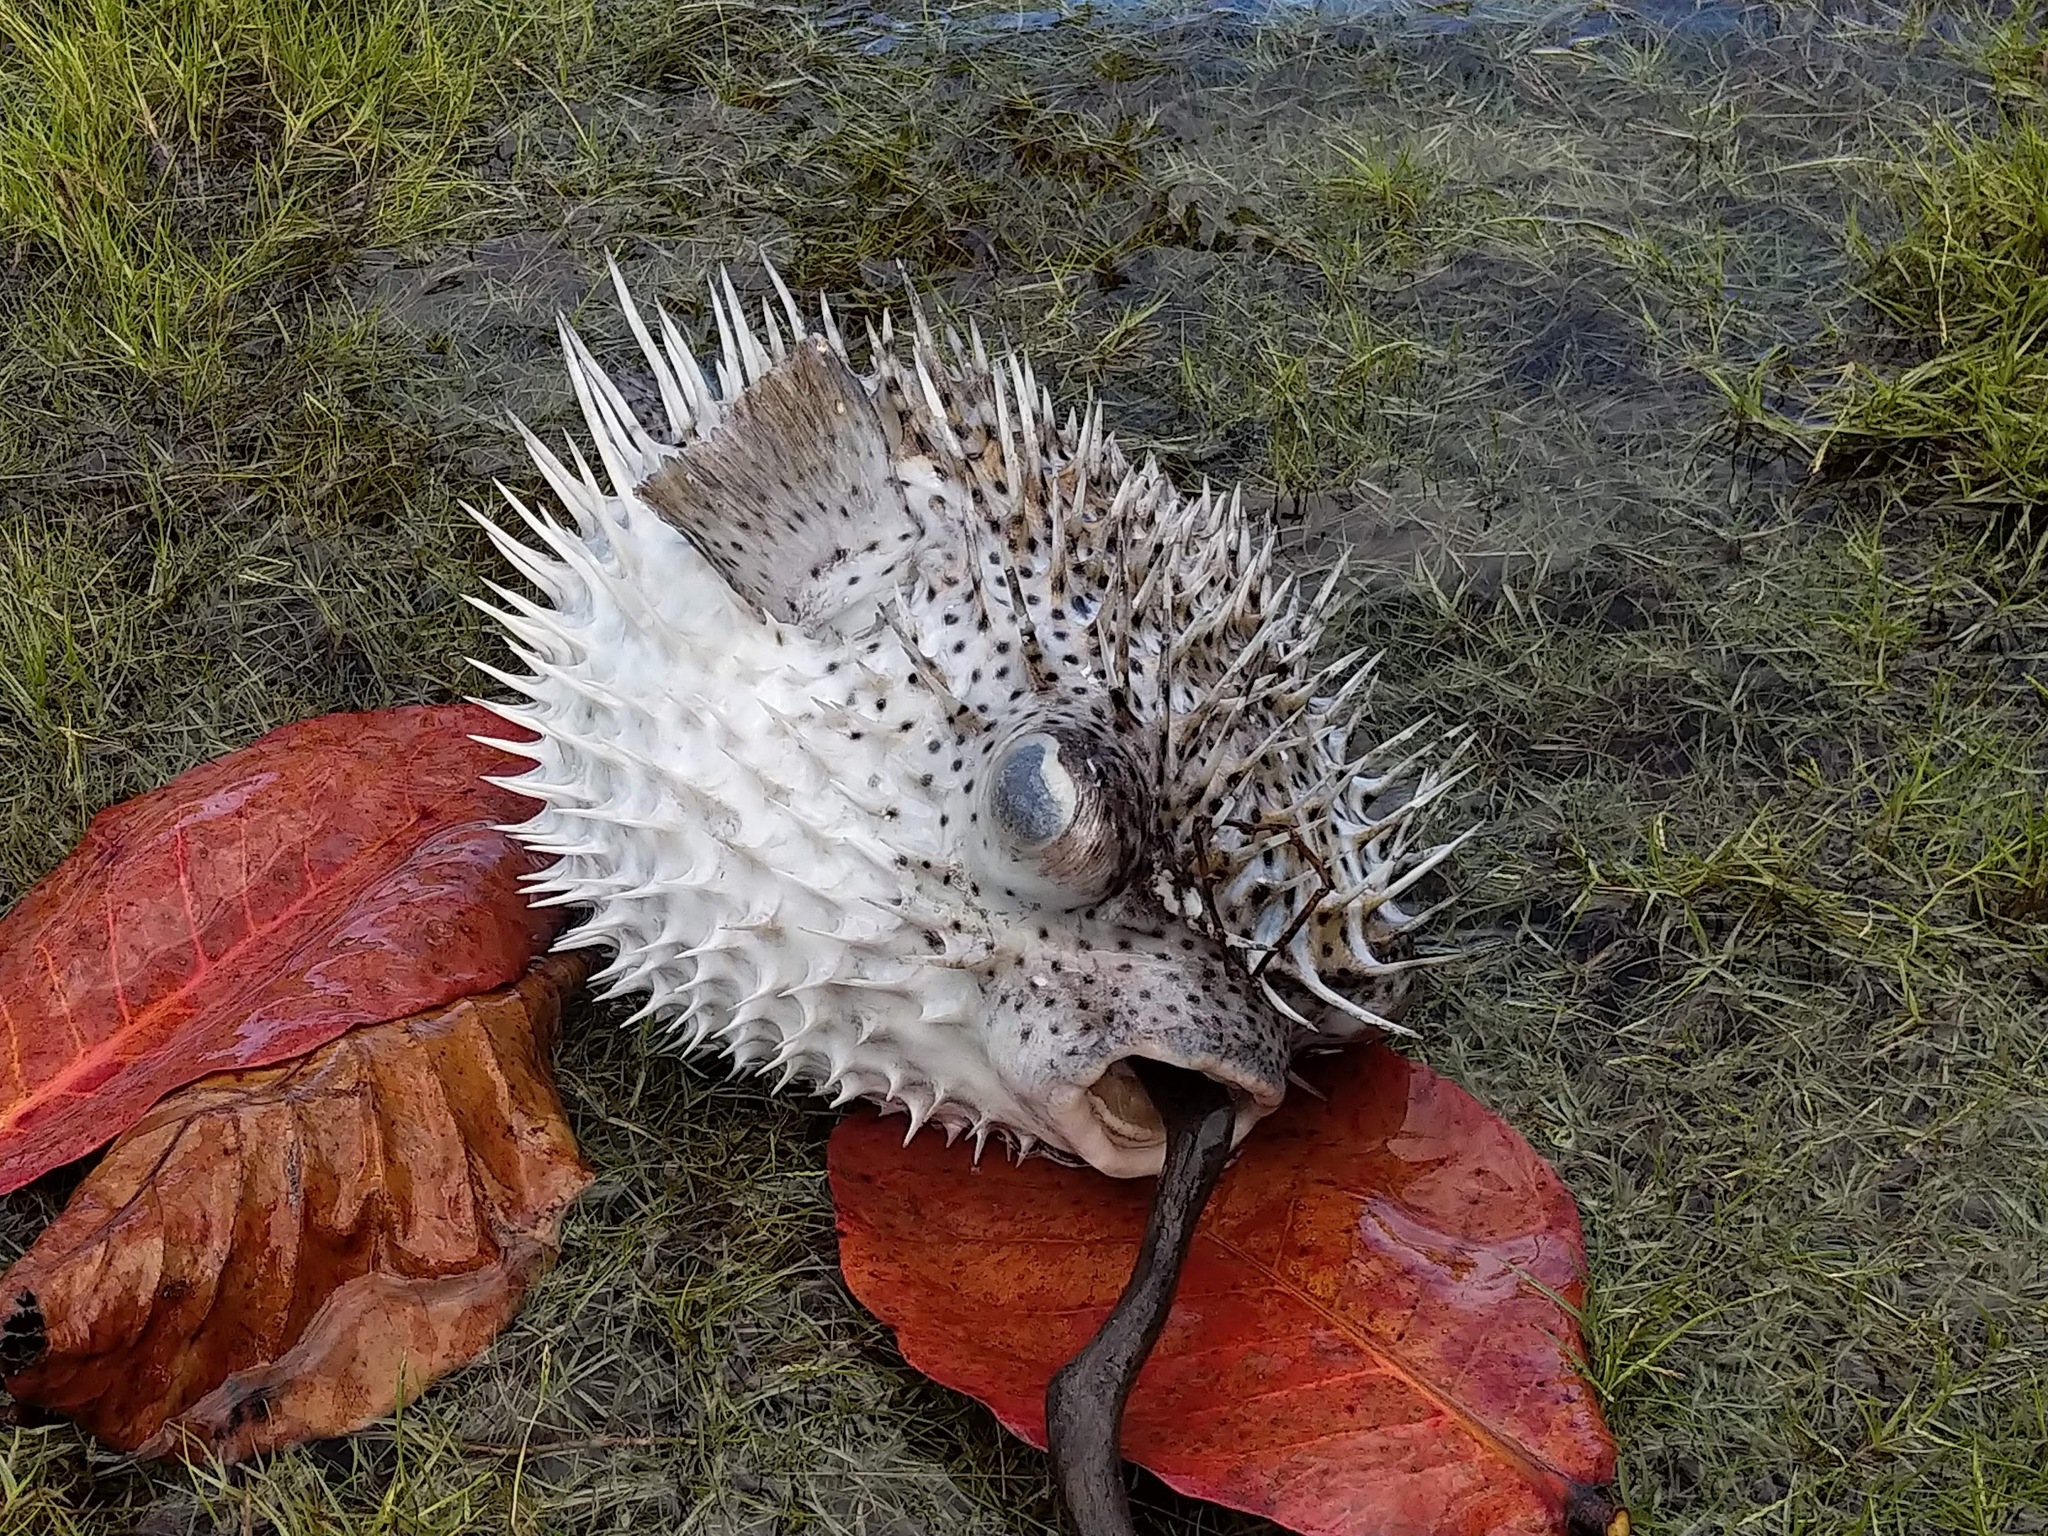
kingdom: Animalia
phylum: Chordata
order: Tetraodontiformes
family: Diodontidae
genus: Diodon
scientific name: Diodon hystrix
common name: Giant porcupinefish
